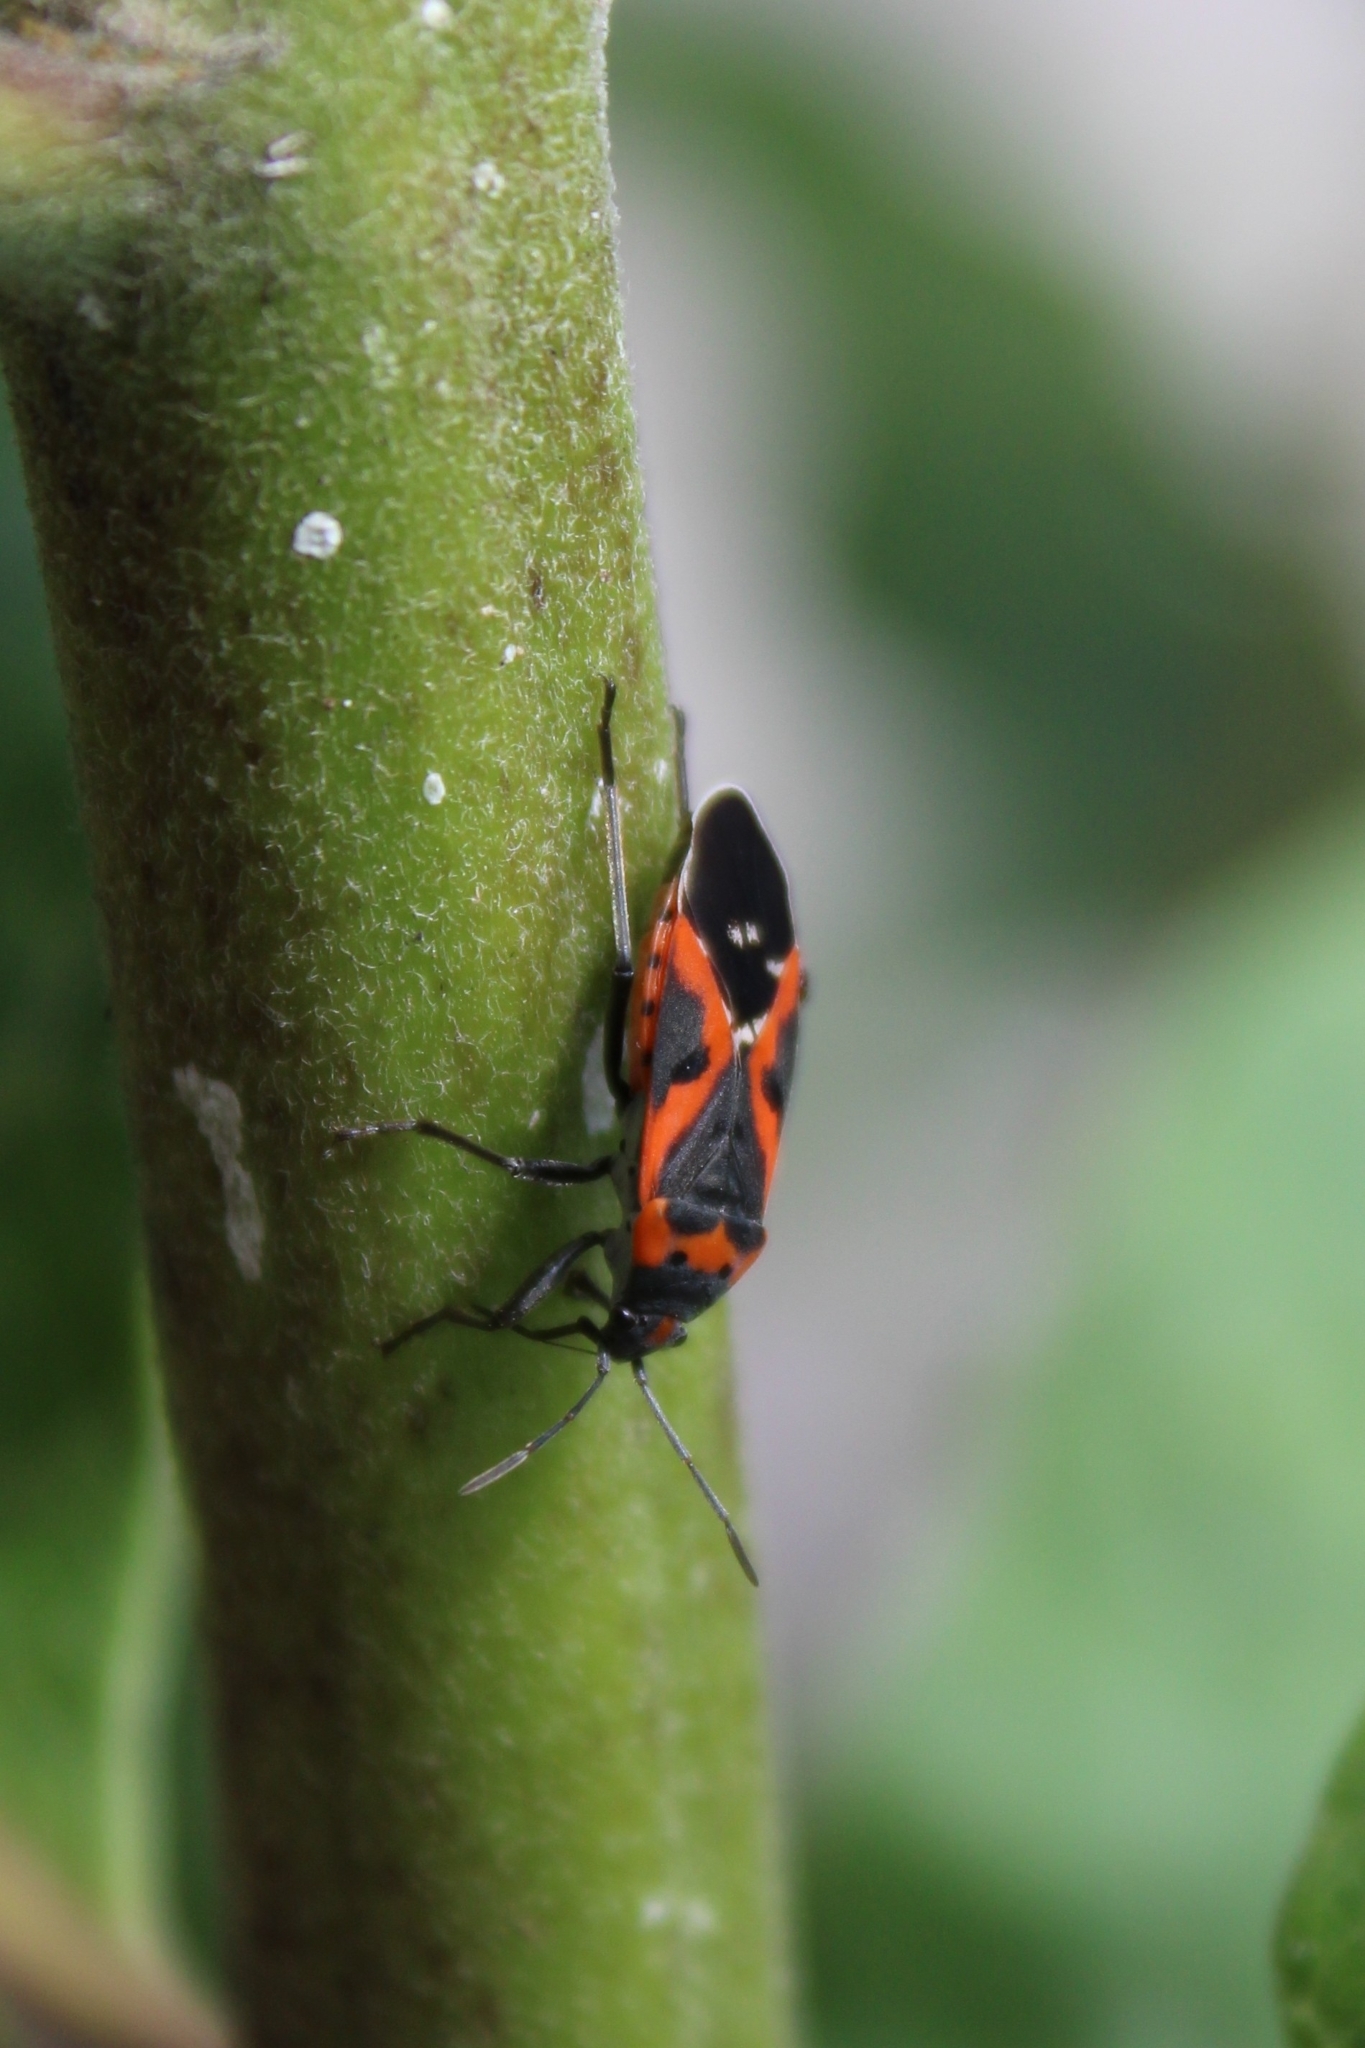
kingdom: Animalia
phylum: Arthropoda
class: Insecta
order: Hemiptera
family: Lygaeidae
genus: Lygaeus
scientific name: Lygaeus kalmii
